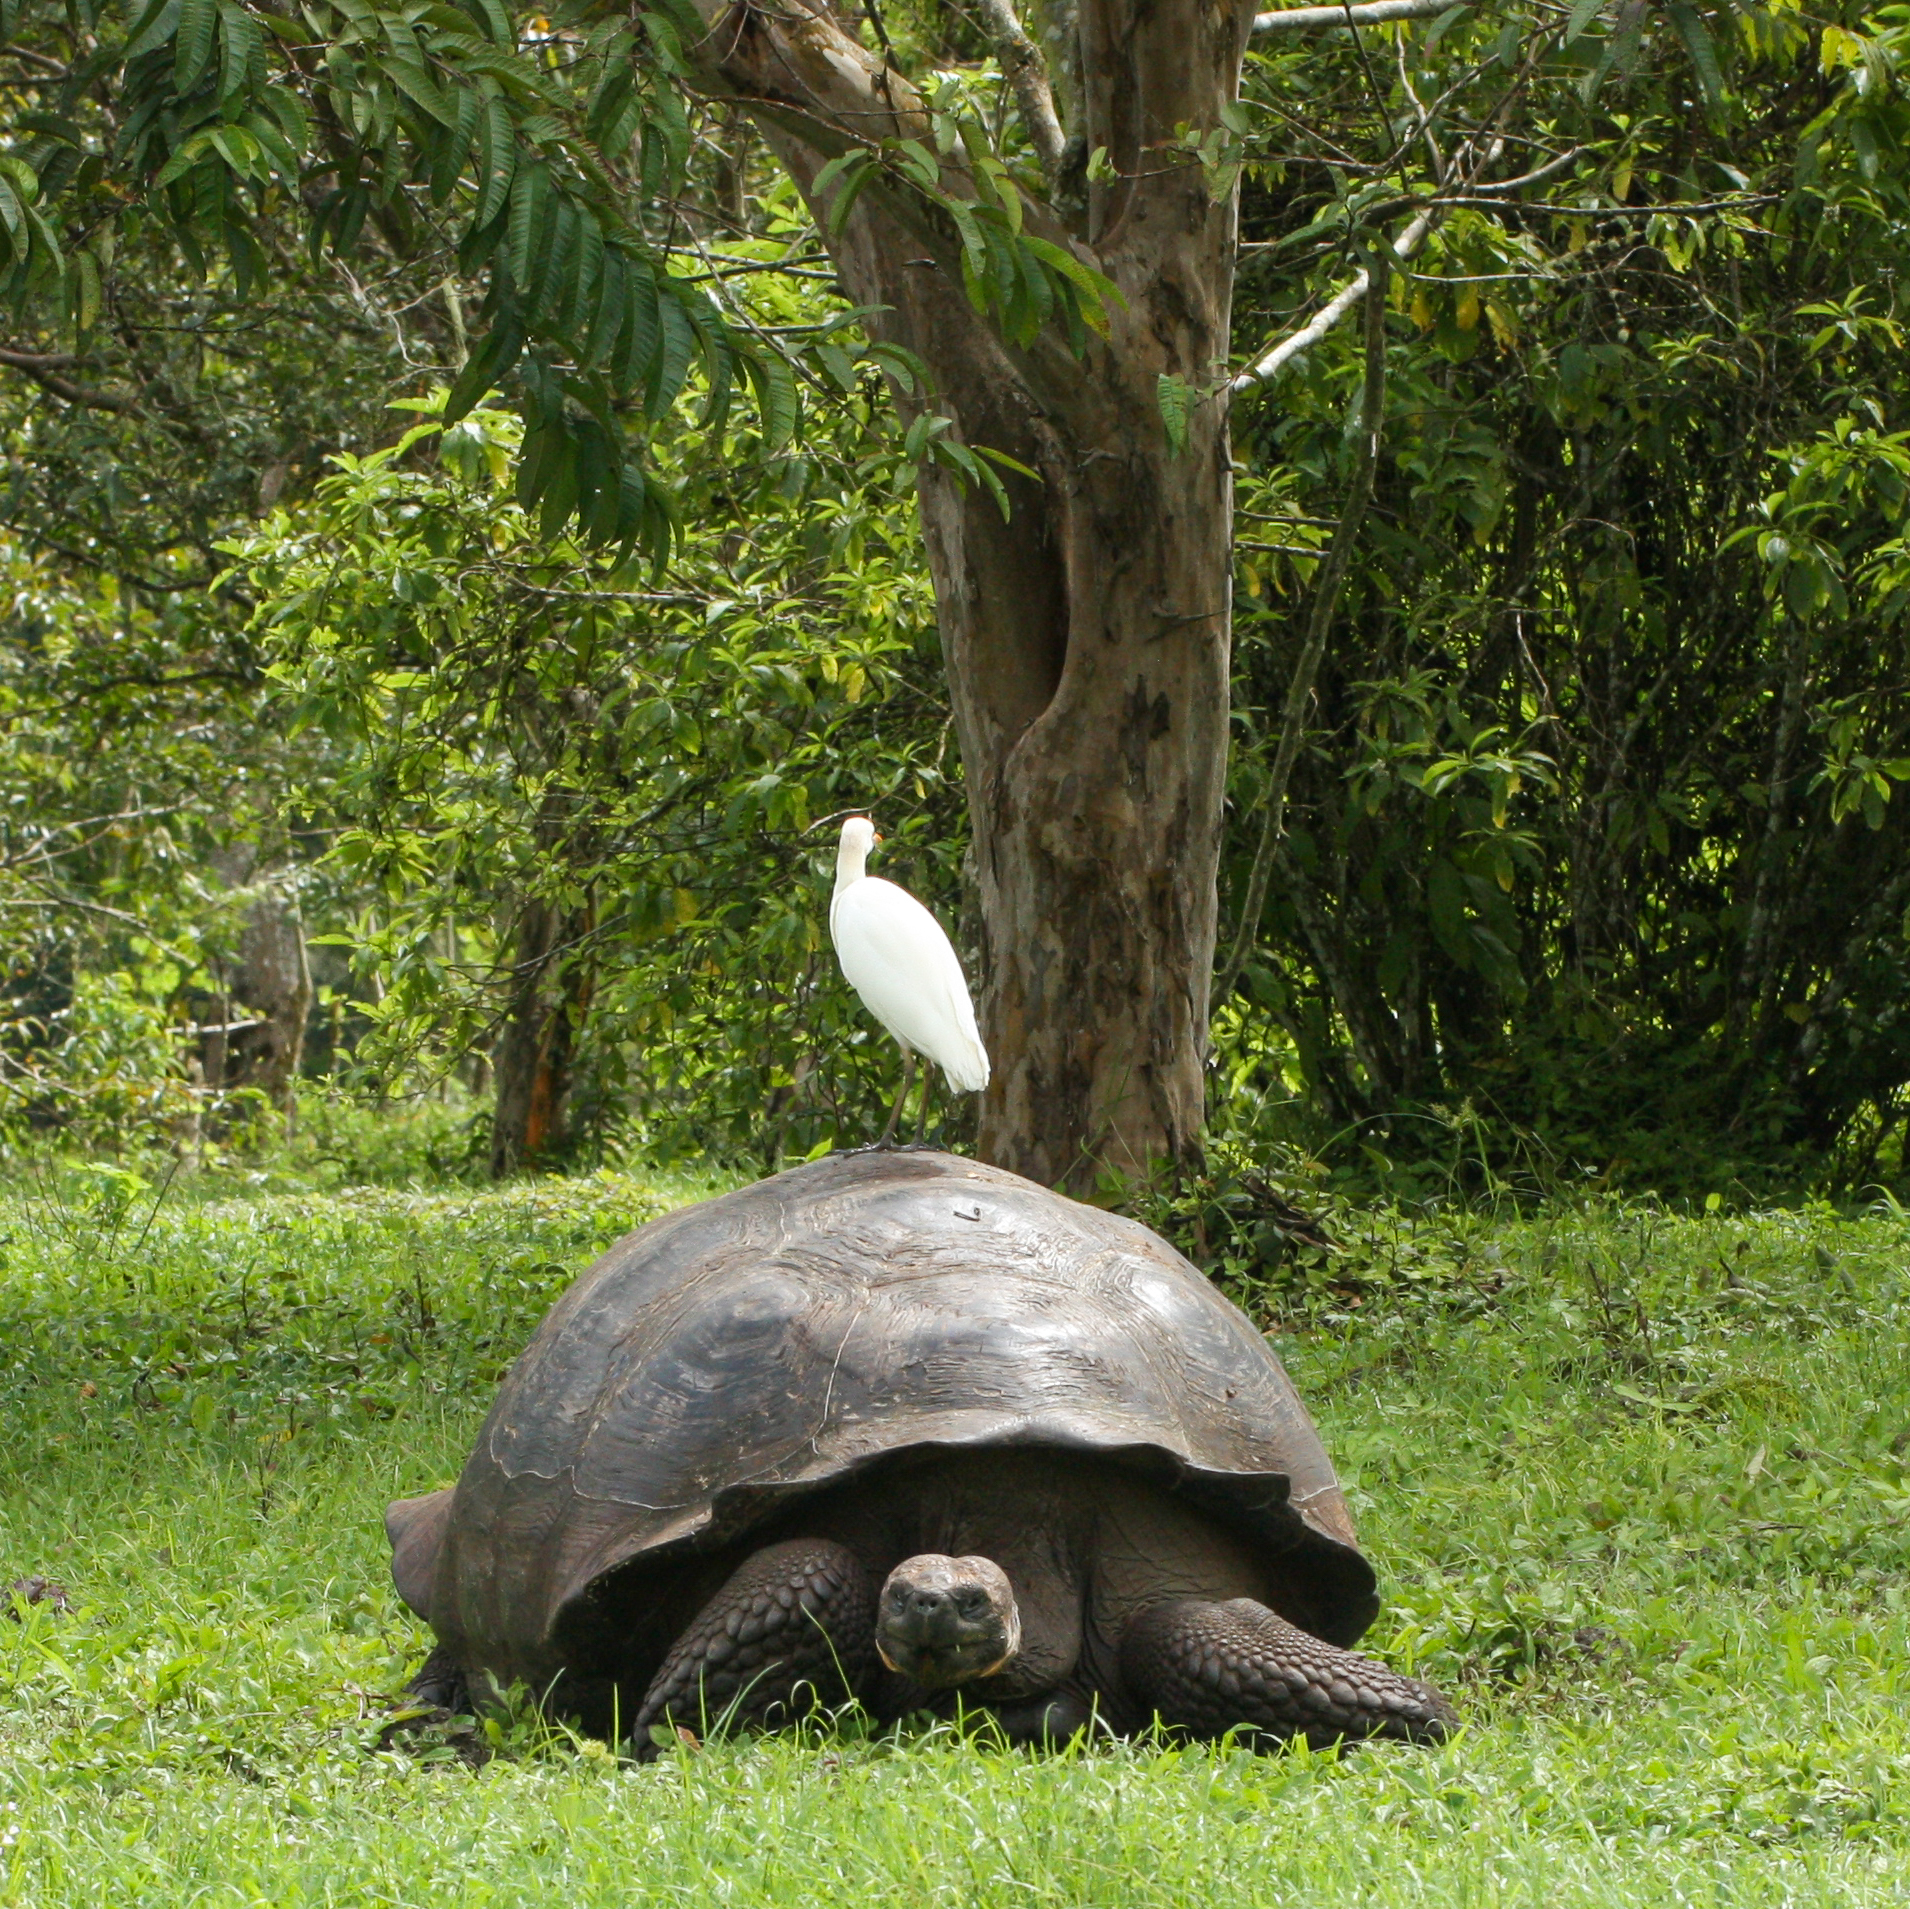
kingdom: Animalia
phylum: Chordata
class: Testudines
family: Testudinidae
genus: Chelonoidis
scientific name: Chelonoidis porteri
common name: Indefatigable island giant tortoise
